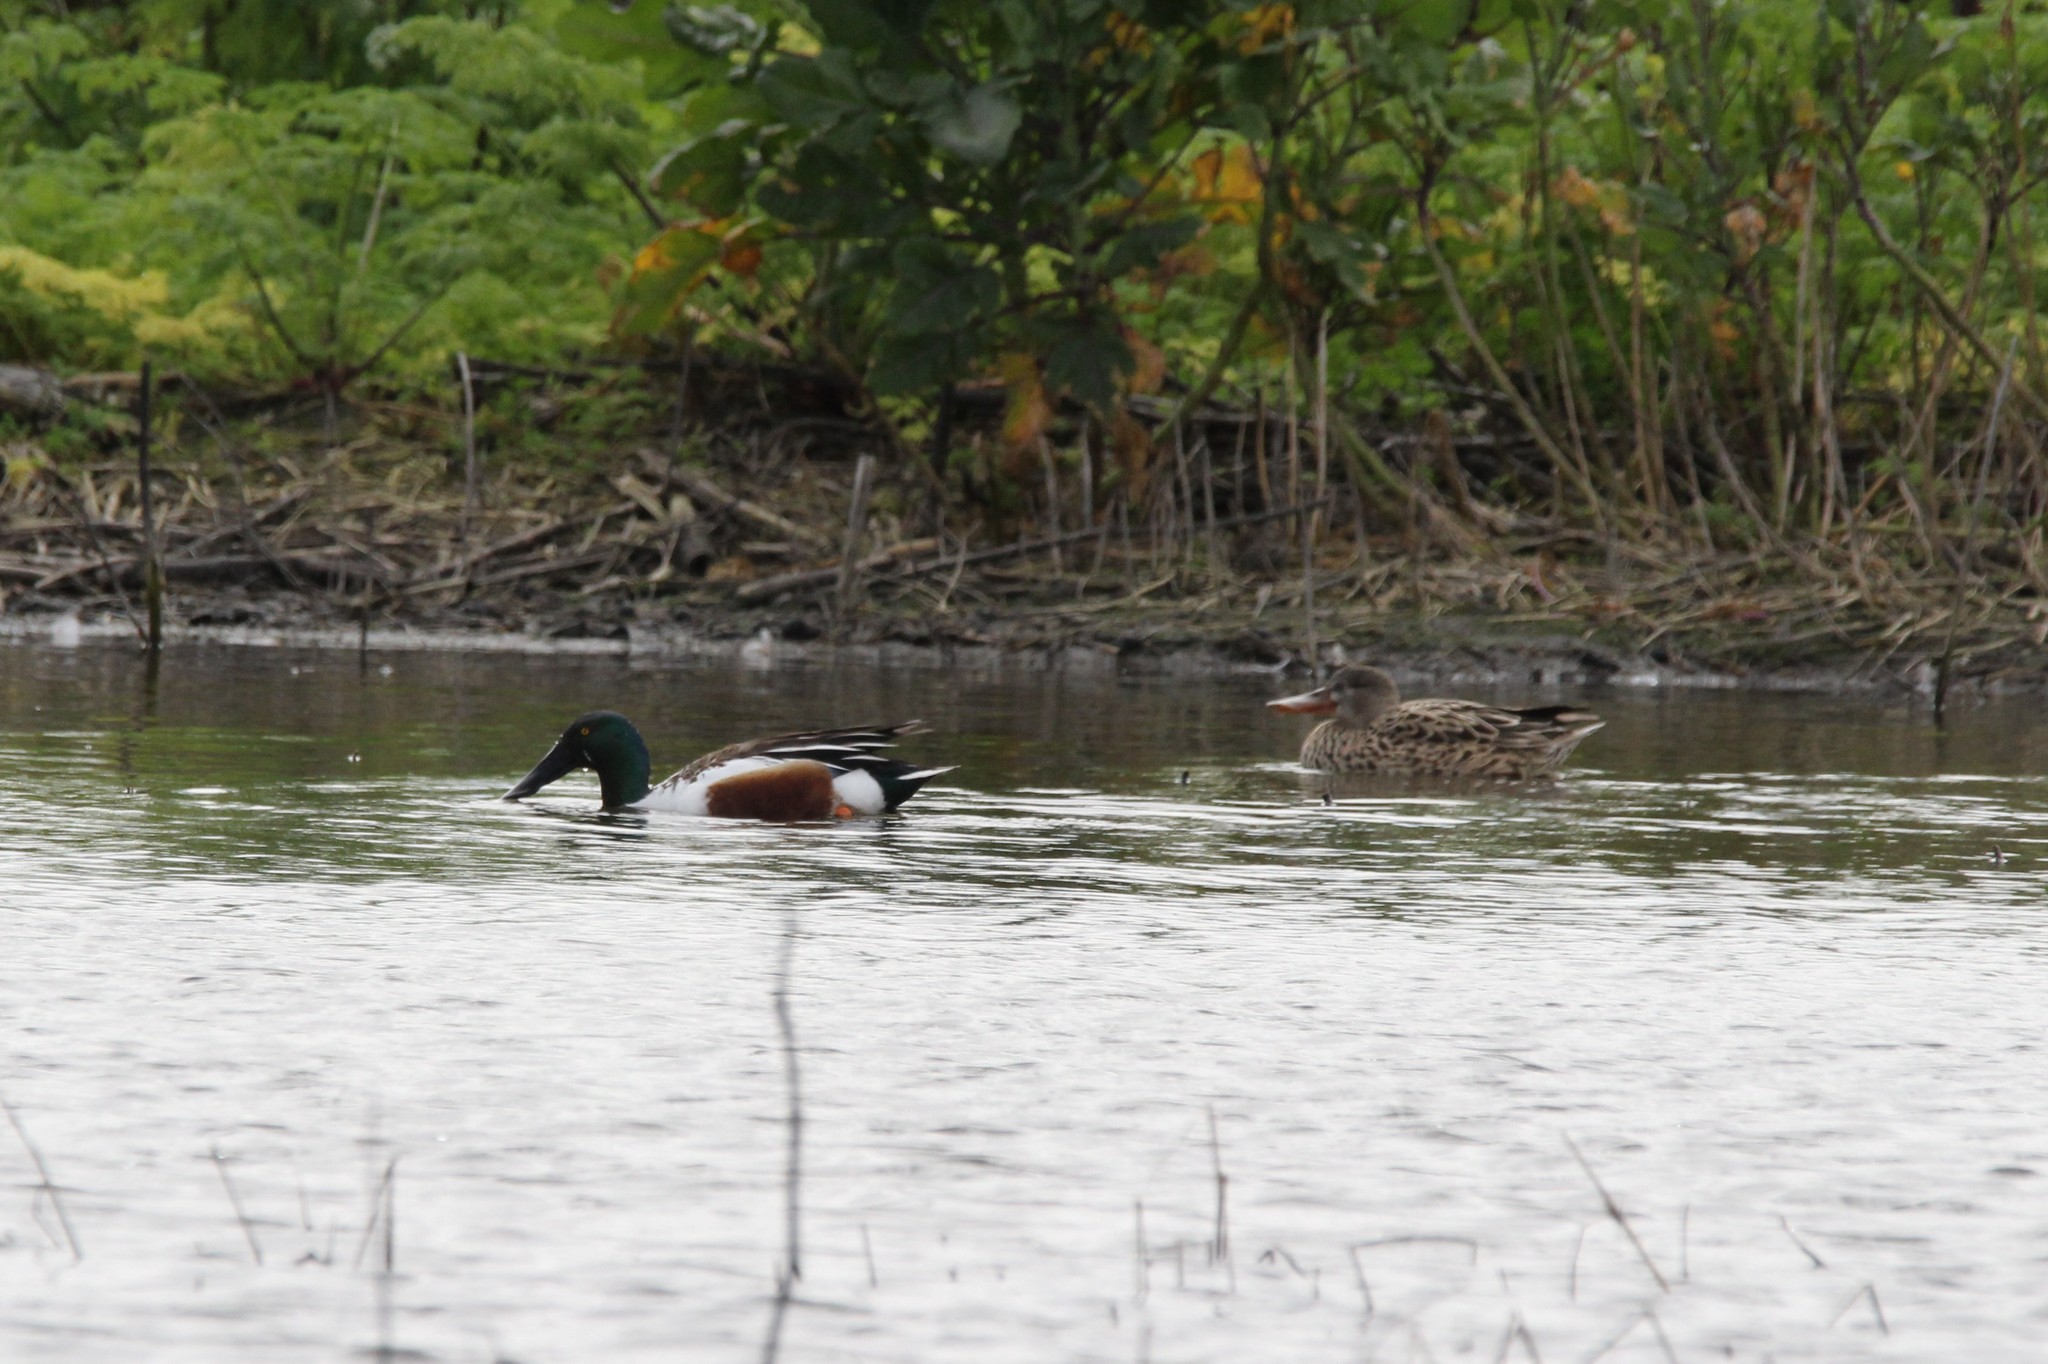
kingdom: Animalia
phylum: Chordata
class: Aves
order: Anseriformes
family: Anatidae
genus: Spatula
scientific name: Spatula clypeata
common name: Northern shoveler
